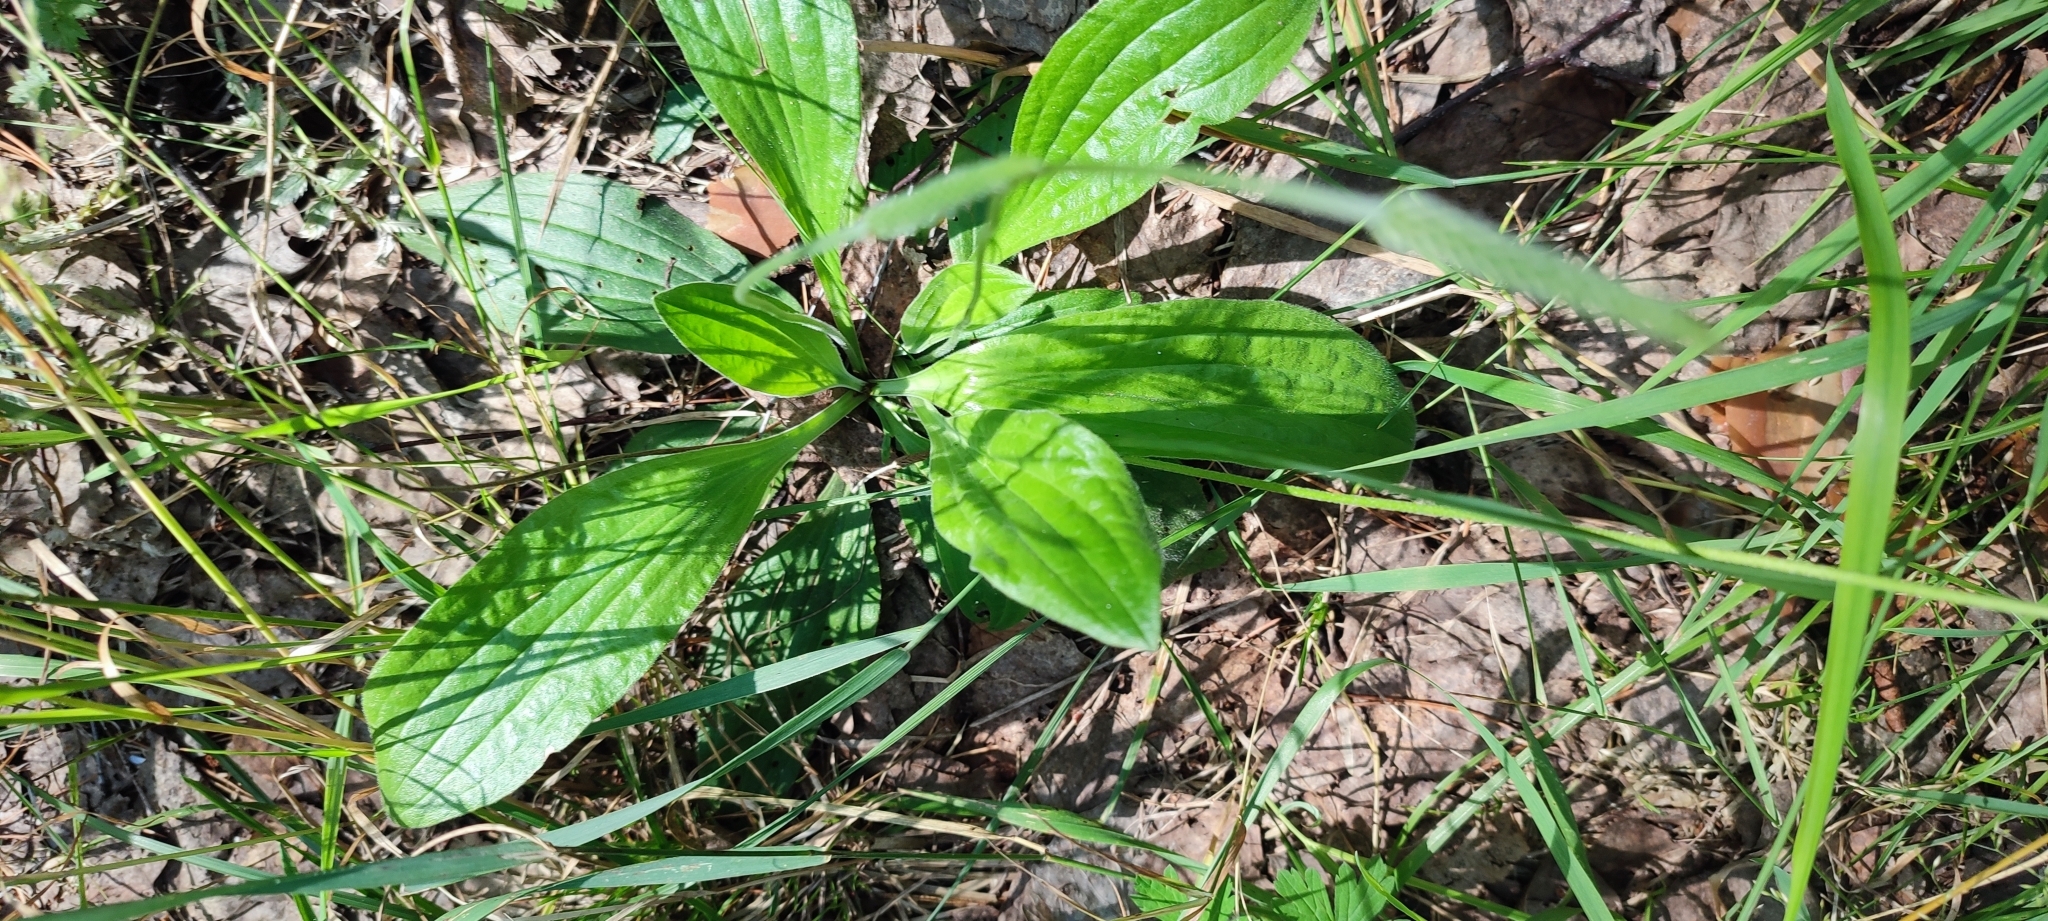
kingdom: Plantae
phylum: Tracheophyta
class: Magnoliopsida
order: Lamiales
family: Plantaginaceae
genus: Plantago
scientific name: Plantago urvillei
